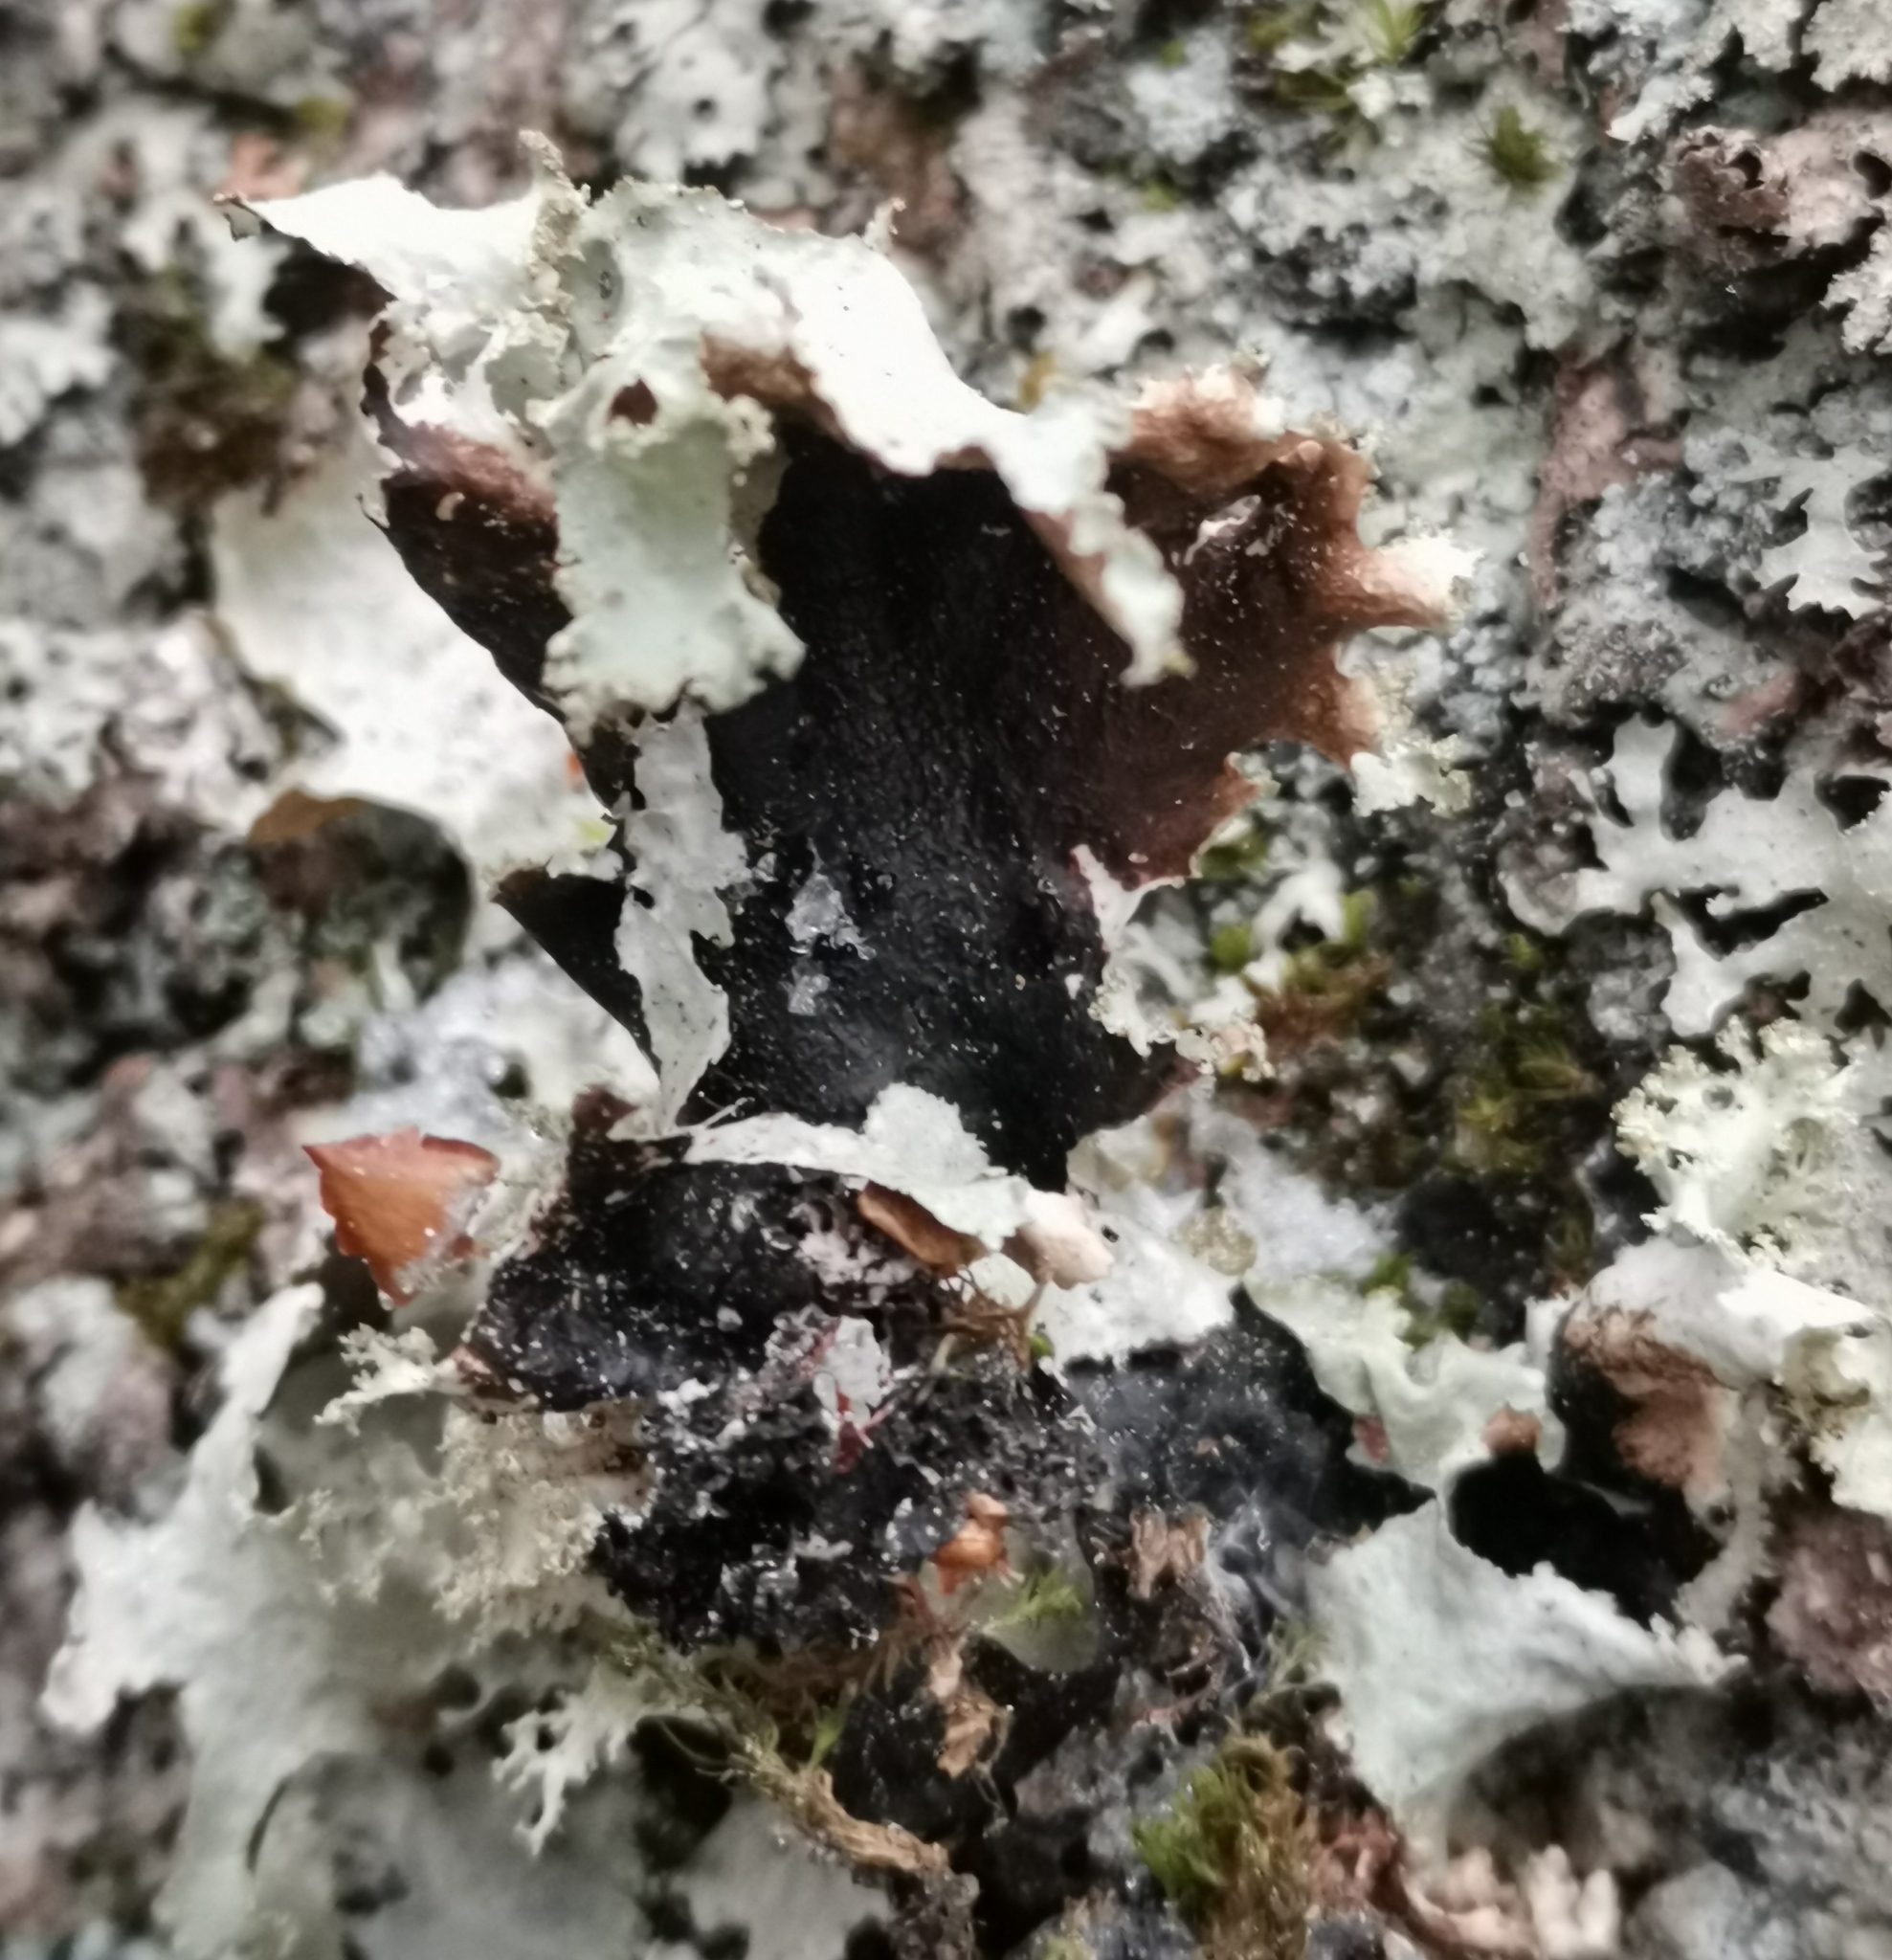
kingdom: Fungi
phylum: Ascomycota
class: Lecanoromycetes
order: Lecanorales
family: Parmeliaceae
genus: Platismatia
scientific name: Platismatia glauca
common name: Varied rag lichen
